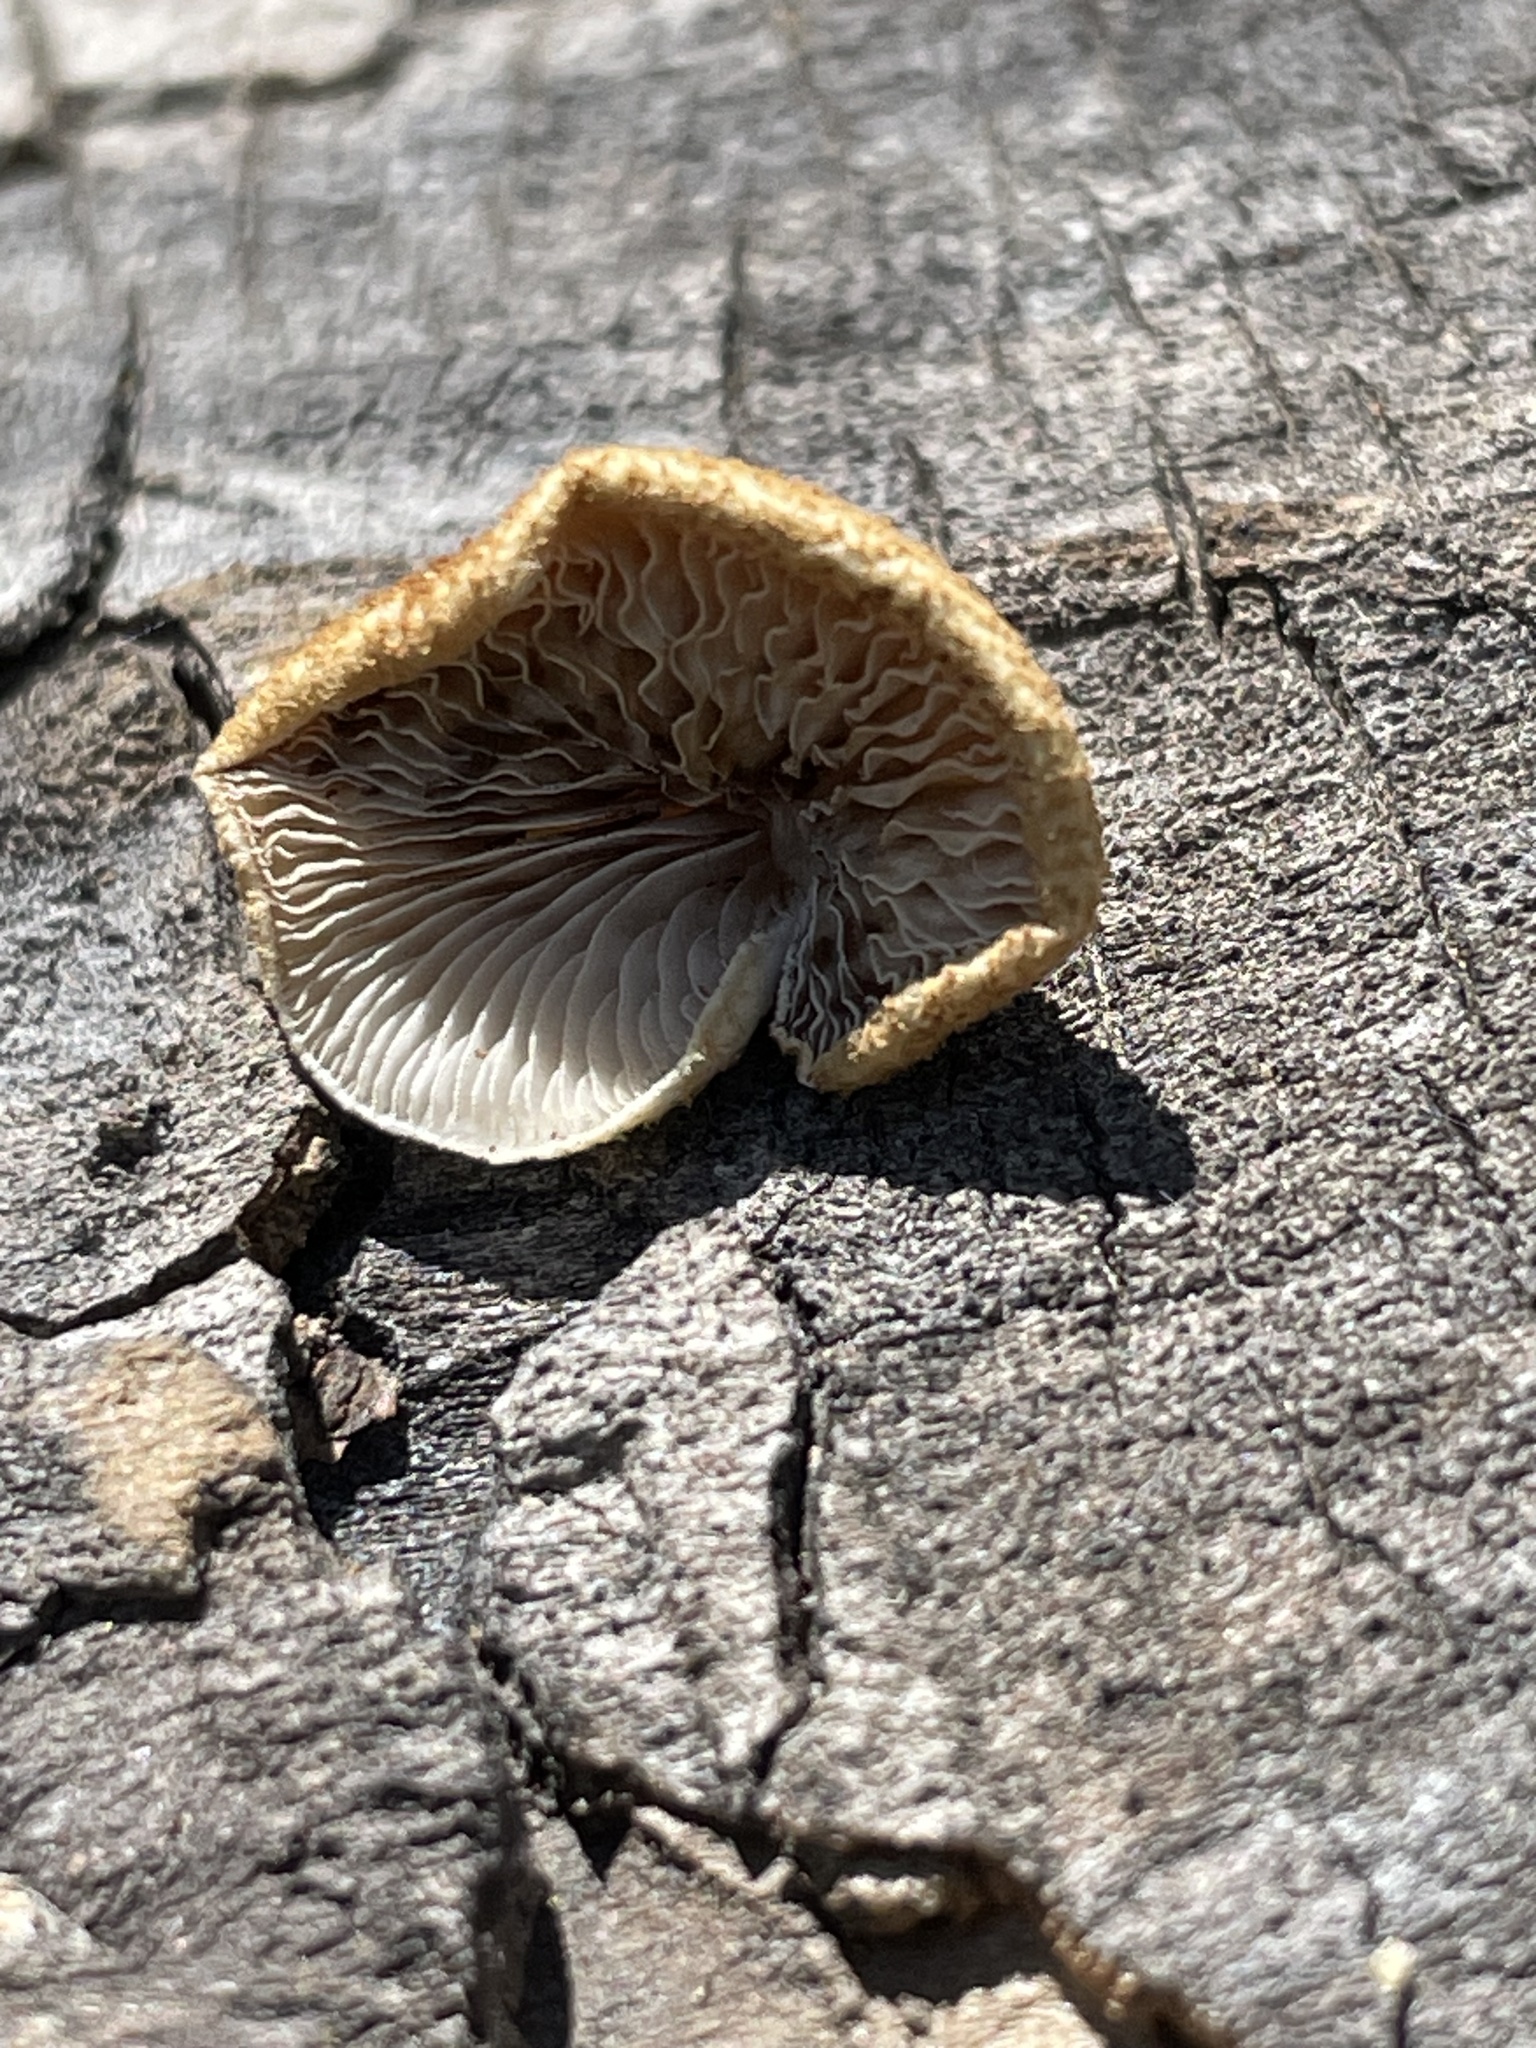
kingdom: Fungi
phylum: Basidiomycota
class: Agaricomycetes
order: Agaricales
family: Crepidotaceae
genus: Crepidotus
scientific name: Crepidotus calolepis
